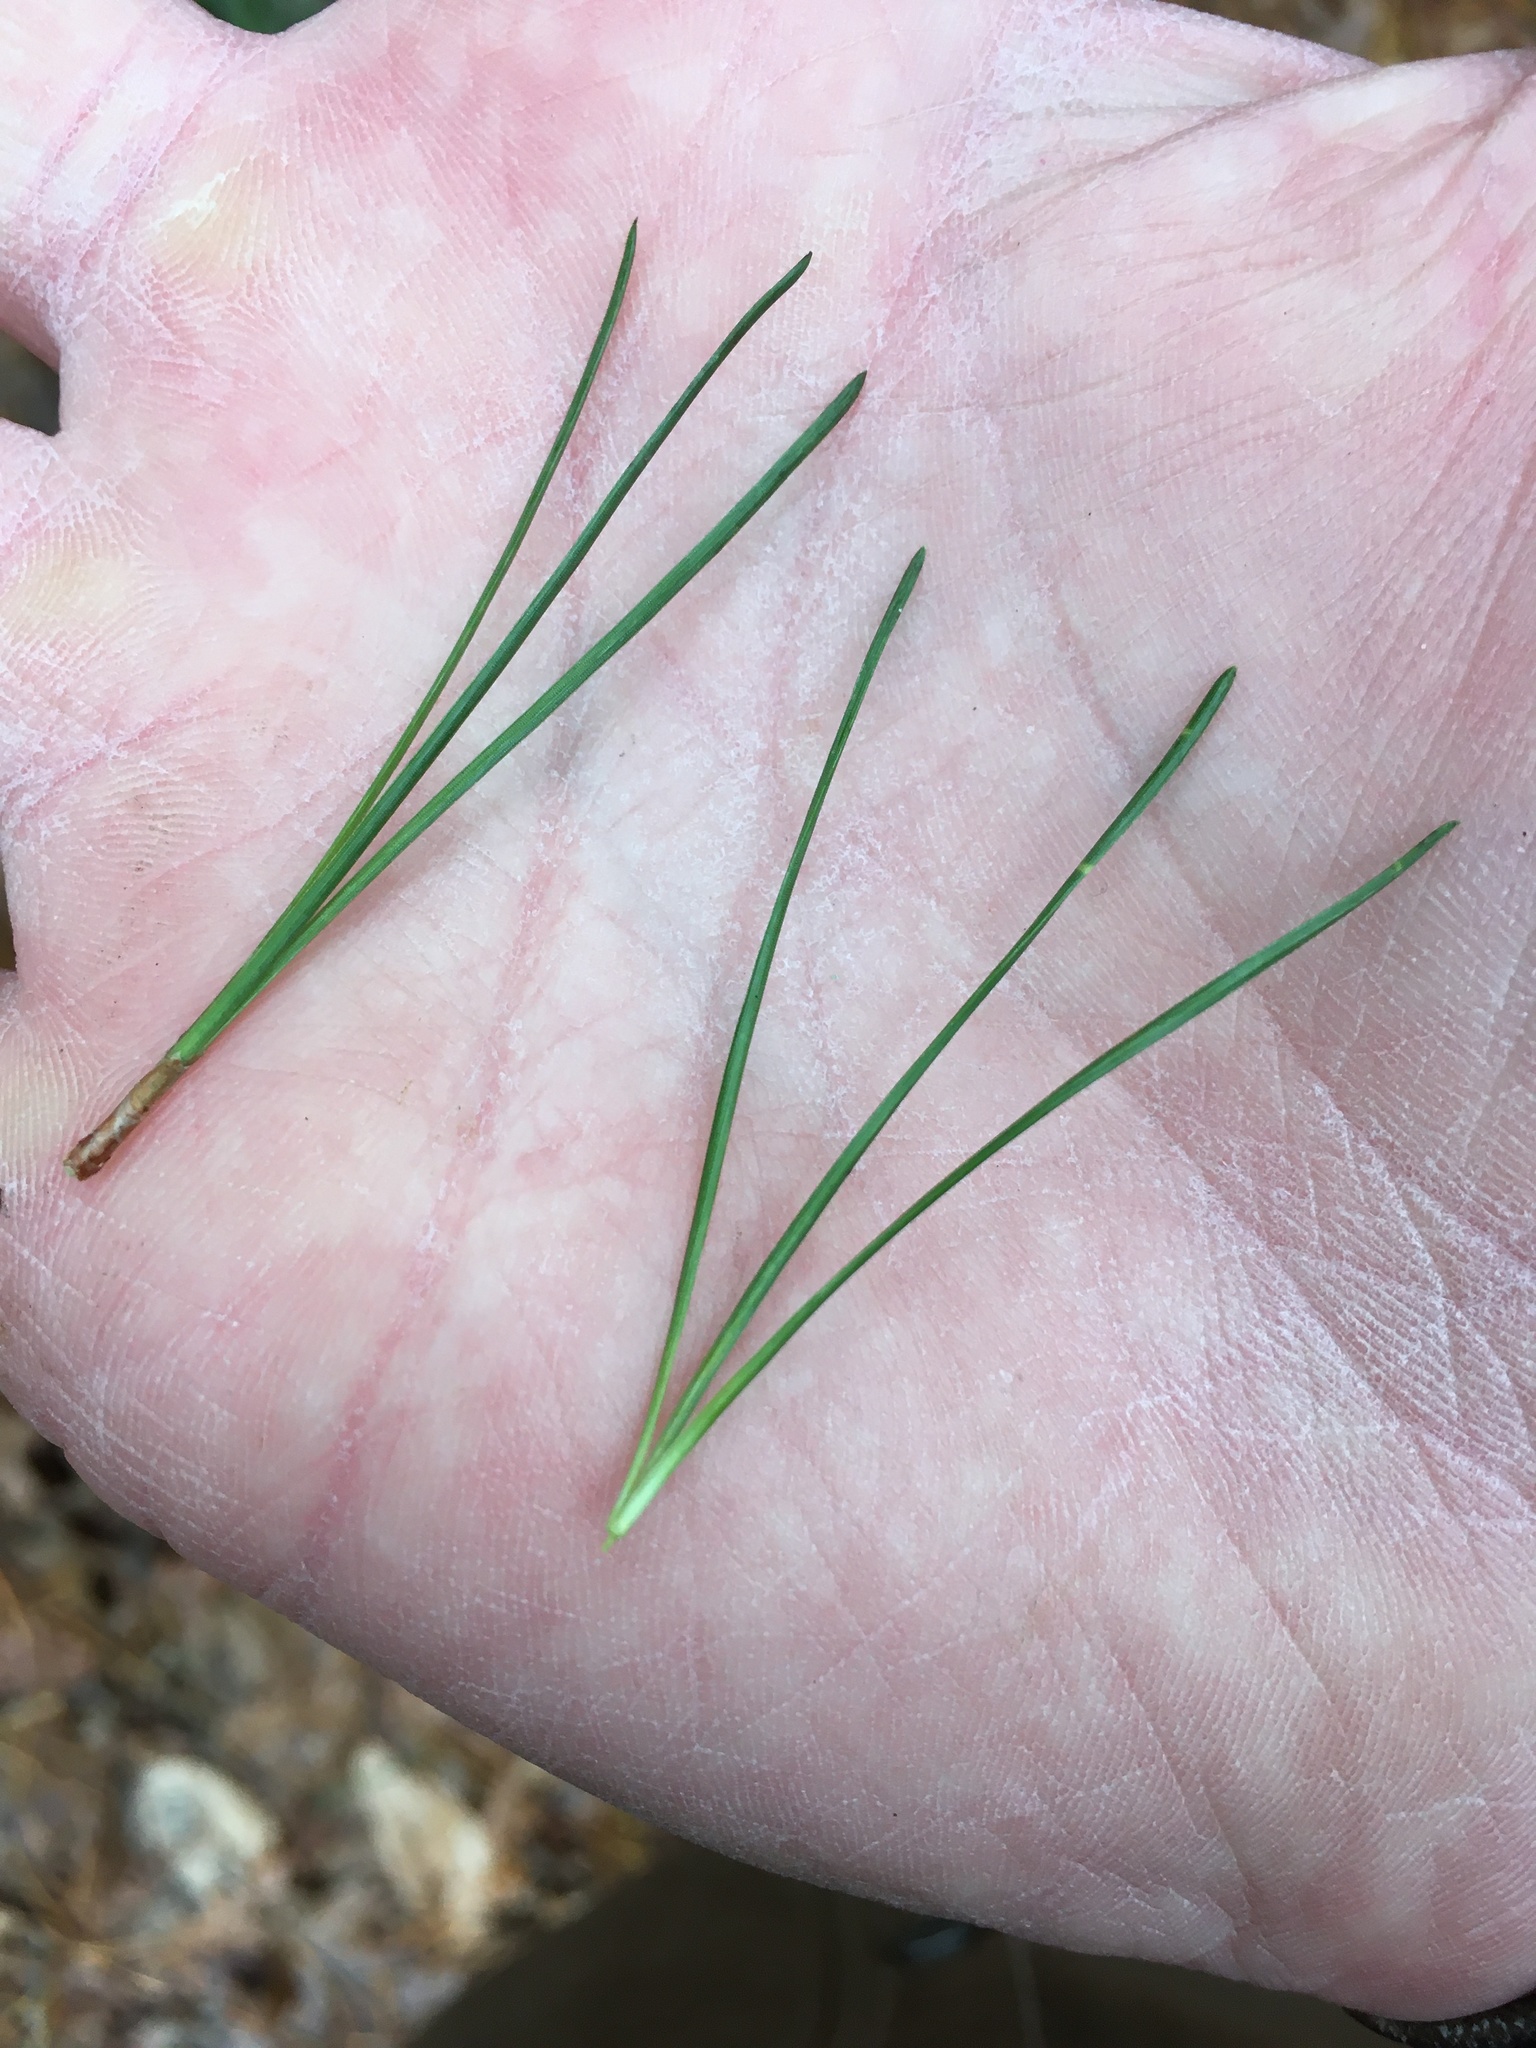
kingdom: Plantae
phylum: Tracheophyta
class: Pinopsida
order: Pinales
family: Pinaceae
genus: Pinus
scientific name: Pinus rigida
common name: Pitch pine
